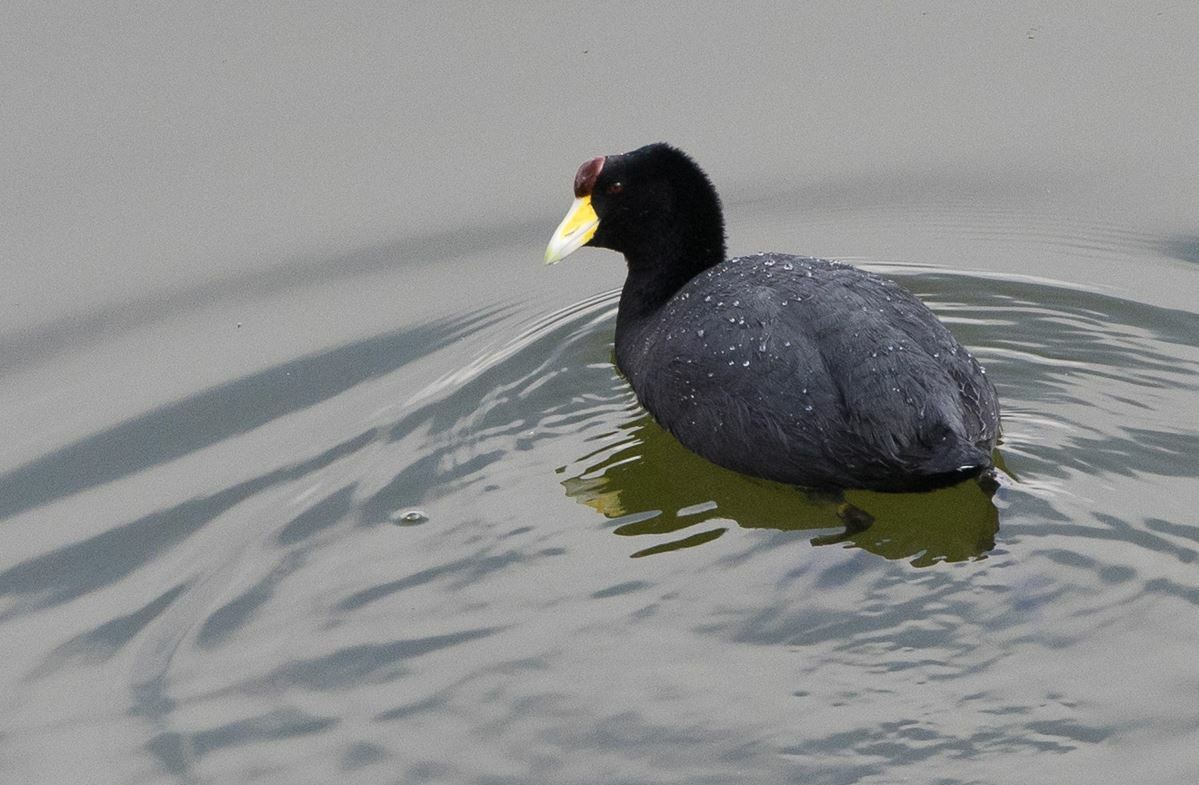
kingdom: Animalia
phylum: Chordata
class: Aves
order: Gruiformes
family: Rallidae
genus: Fulica
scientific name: Fulica ardesiaca
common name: Andean coot
